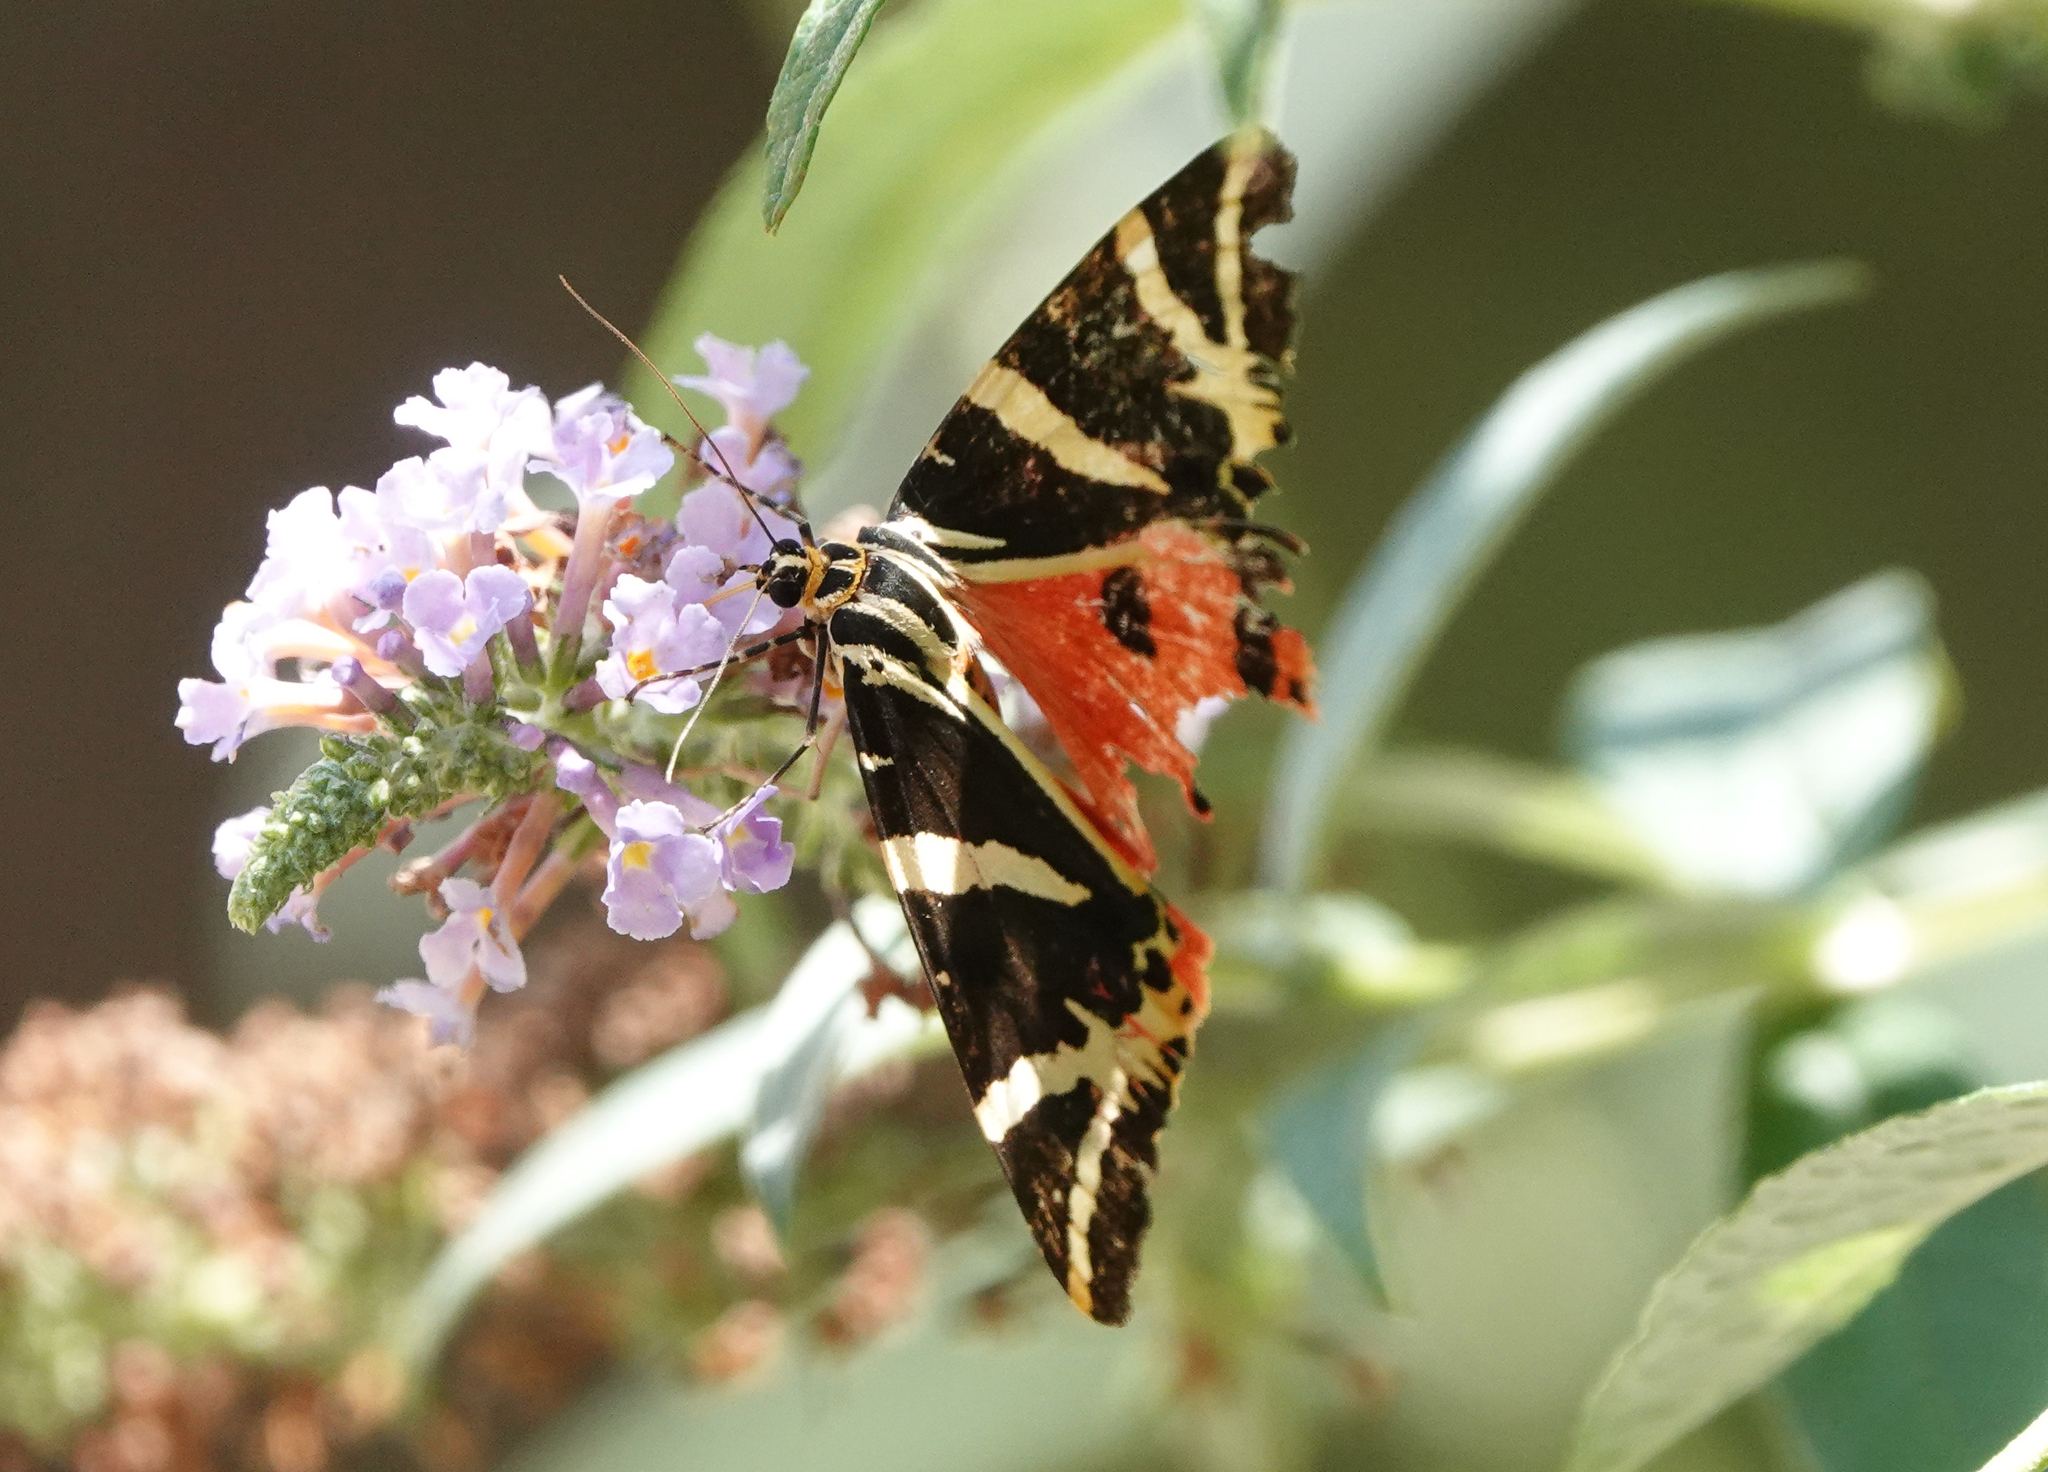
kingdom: Animalia
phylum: Arthropoda
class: Insecta
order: Lepidoptera
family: Erebidae
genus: Euplagia
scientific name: Euplagia quadripunctaria
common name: Jersey tiger
